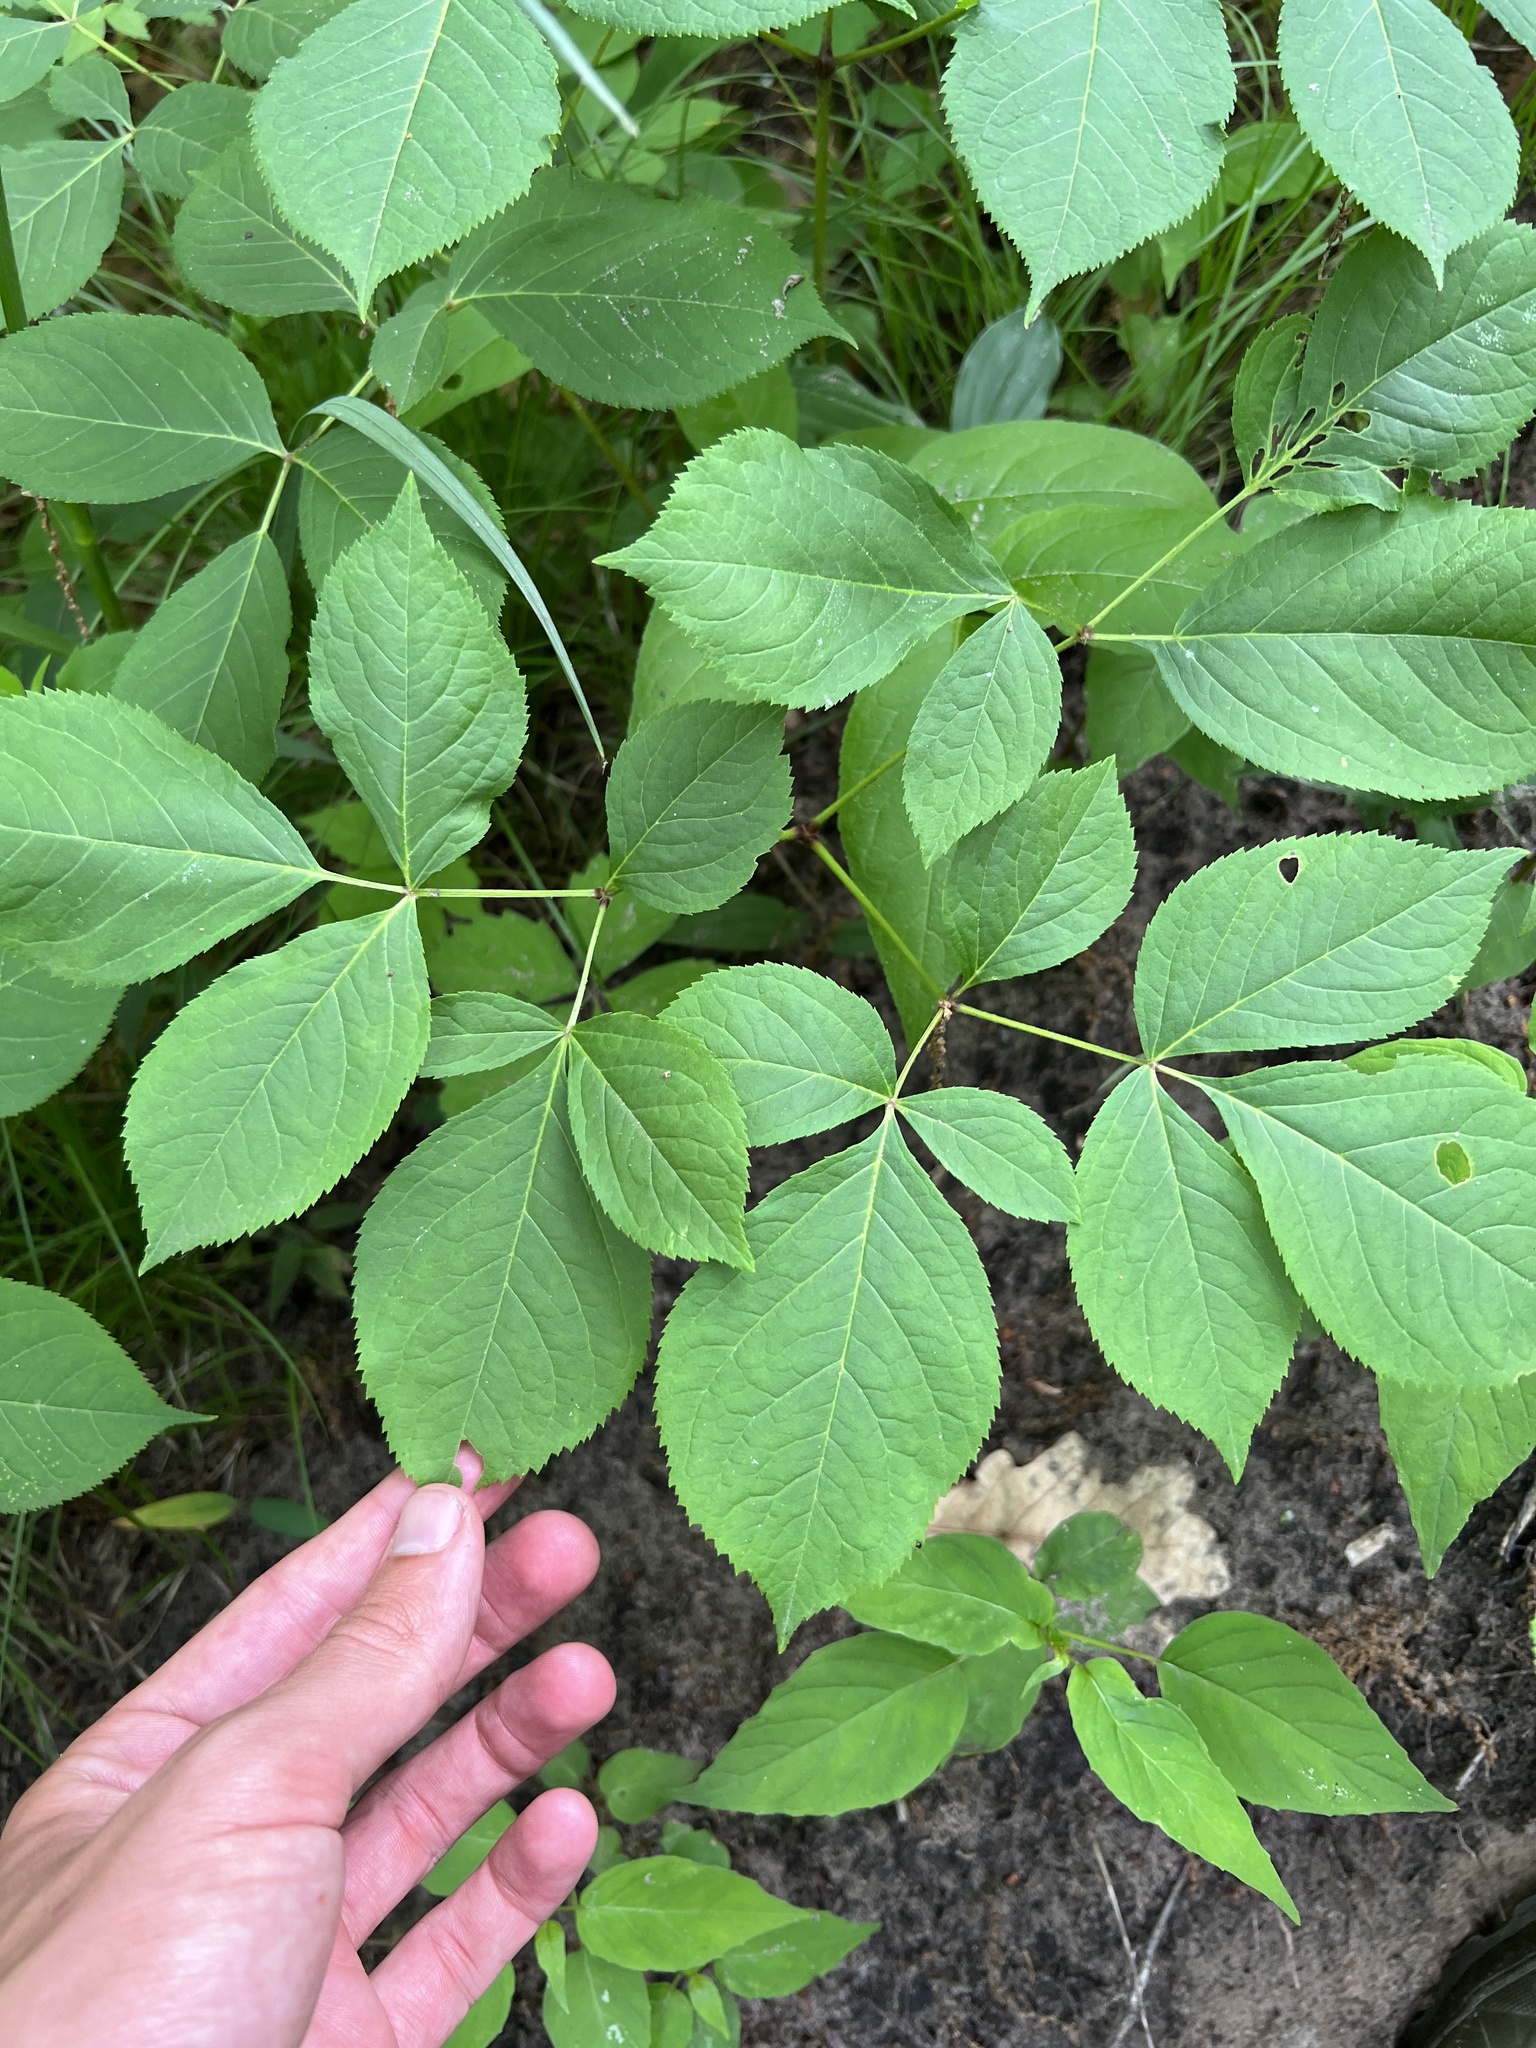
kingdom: Plantae
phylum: Tracheophyta
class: Magnoliopsida
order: Apiales
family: Araliaceae
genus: Aralia
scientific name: Aralia nudicaulis
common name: Wild sarsaparilla
